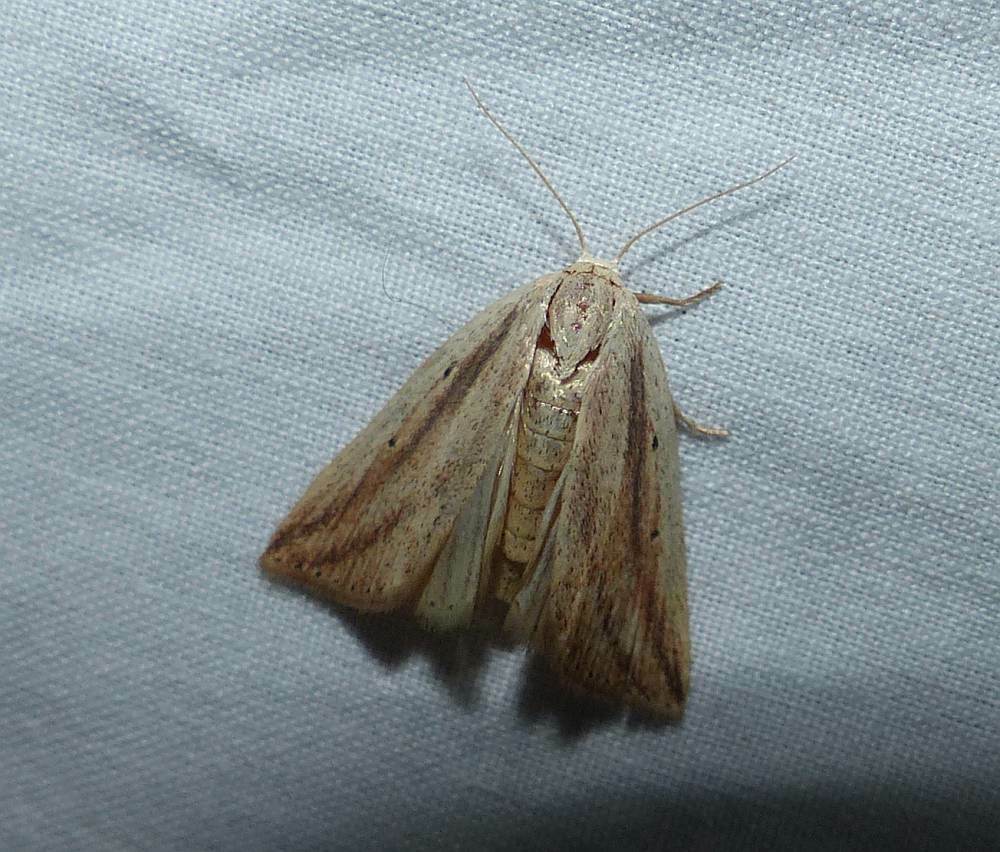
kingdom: Animalia
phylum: Arthropoda
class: Insecta
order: Lepidoptera
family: Noctuidae
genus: Amolita
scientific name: Amolita fessa
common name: Feeble grass moth
